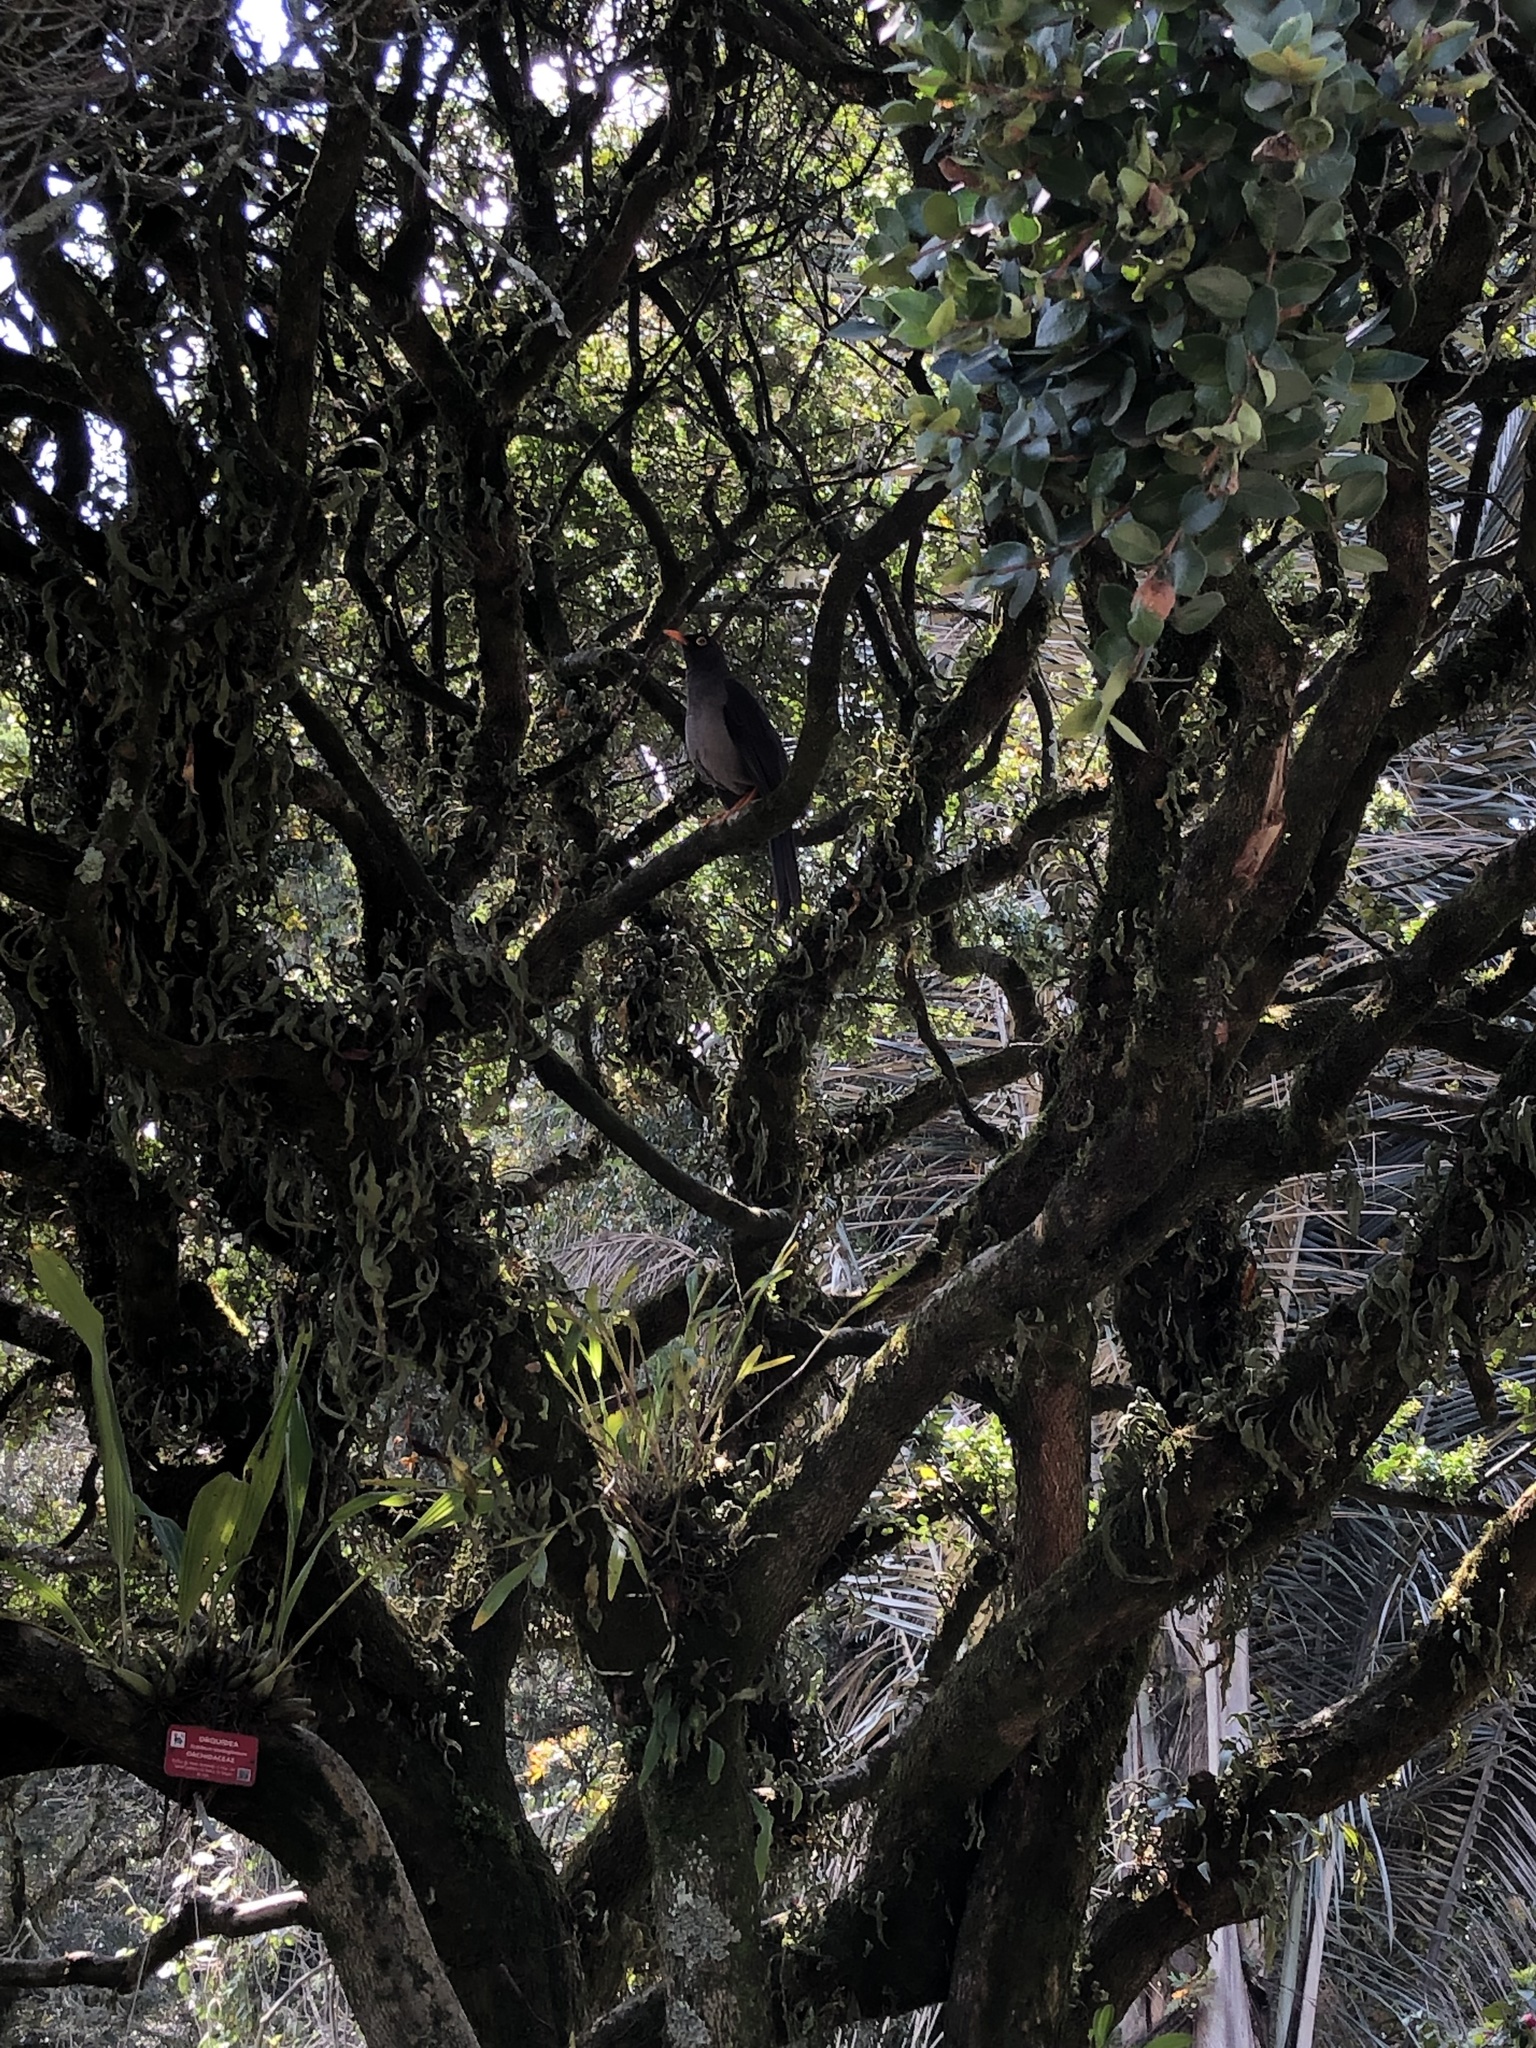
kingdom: Animalia
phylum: Chordata
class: Aves
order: Passeriformes
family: Turdidae
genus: Turdus
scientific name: Turdus fuscater
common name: Great thrush
